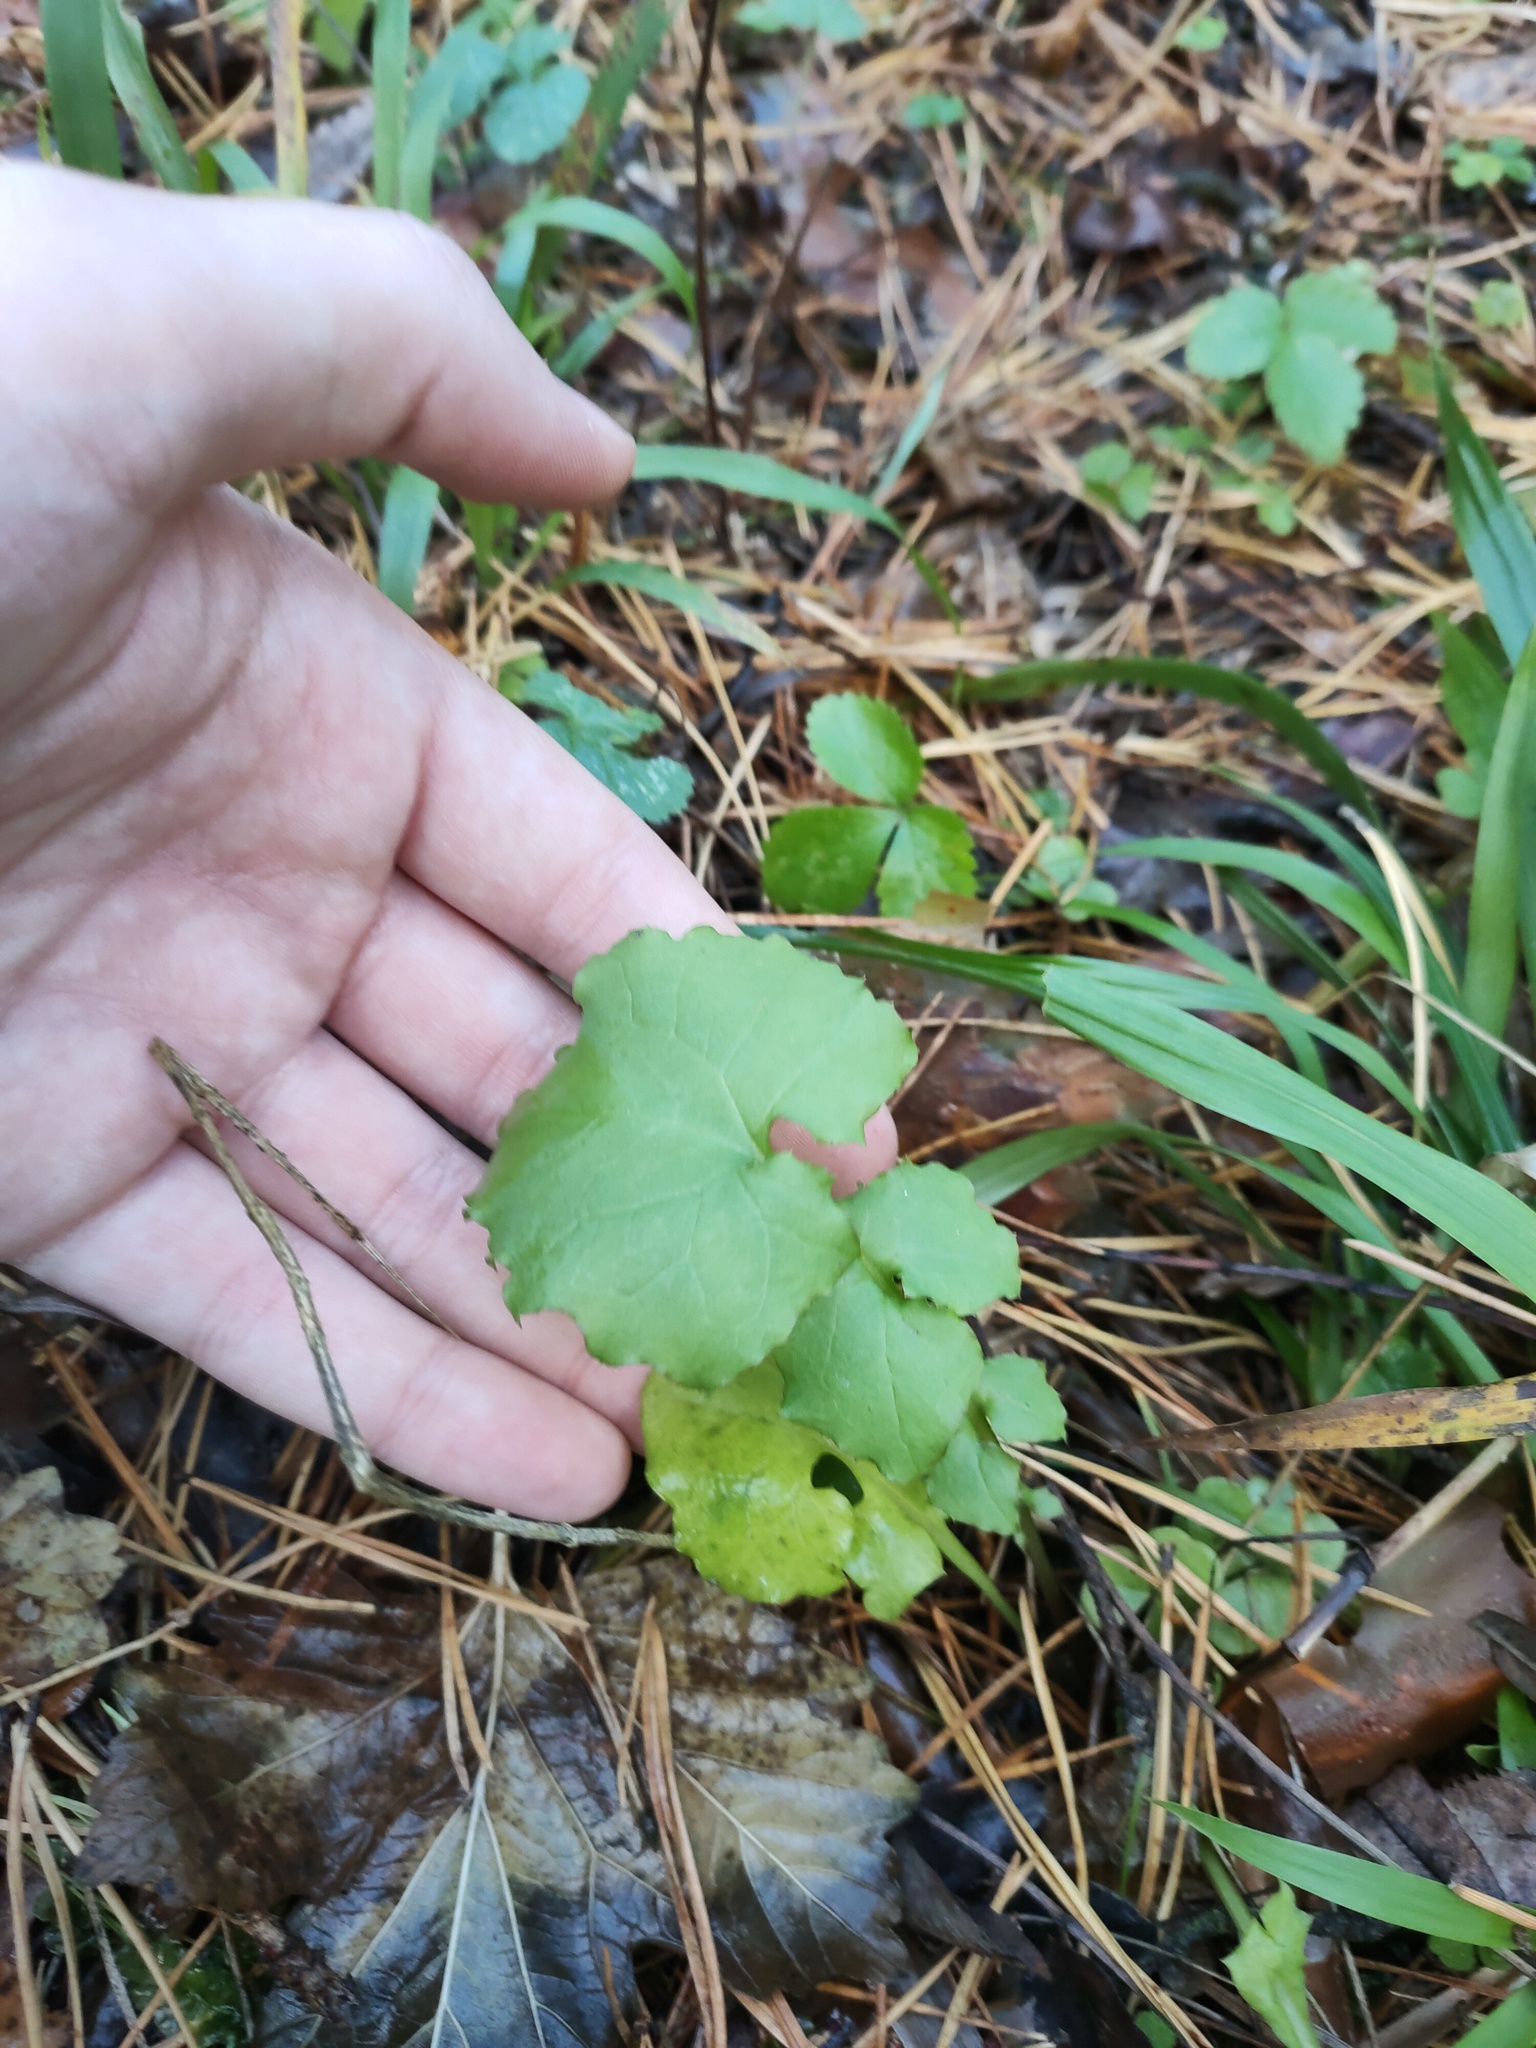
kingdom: Plantae
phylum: Tracheophyta
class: Magnoliopsida
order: Asterales
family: Asteraceae
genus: Mycelis
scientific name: Mycelis muralis
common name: Wall lettuce
